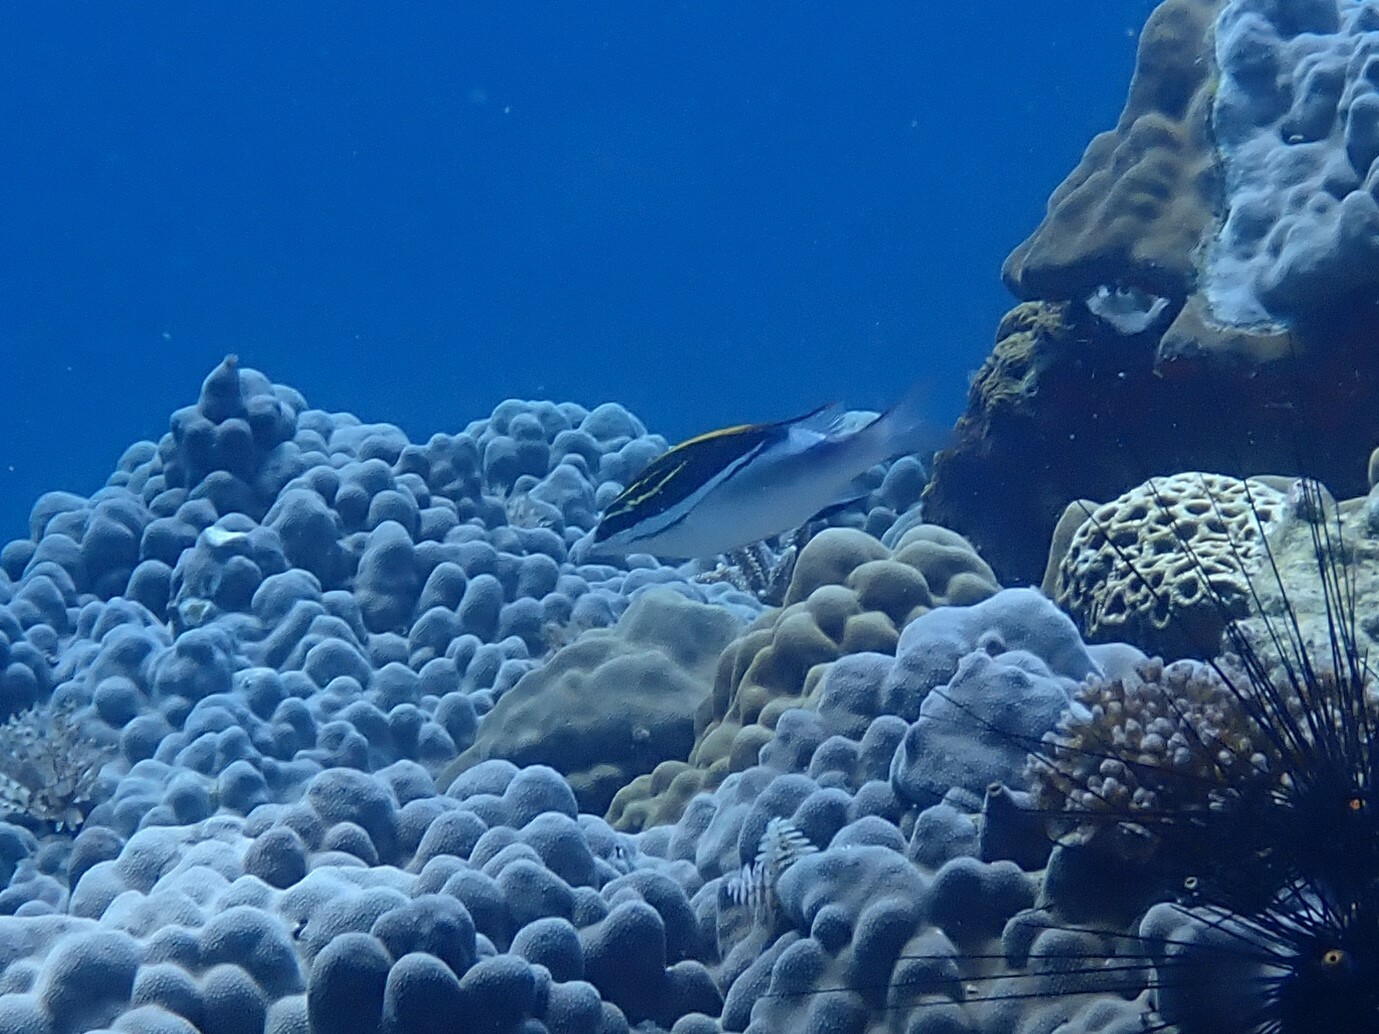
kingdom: Animalia
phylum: Chordata
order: Perciformes
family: Nemipteridae
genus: Scolopsis
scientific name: Scolopsis bilineata
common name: Two-lined monocle bream
